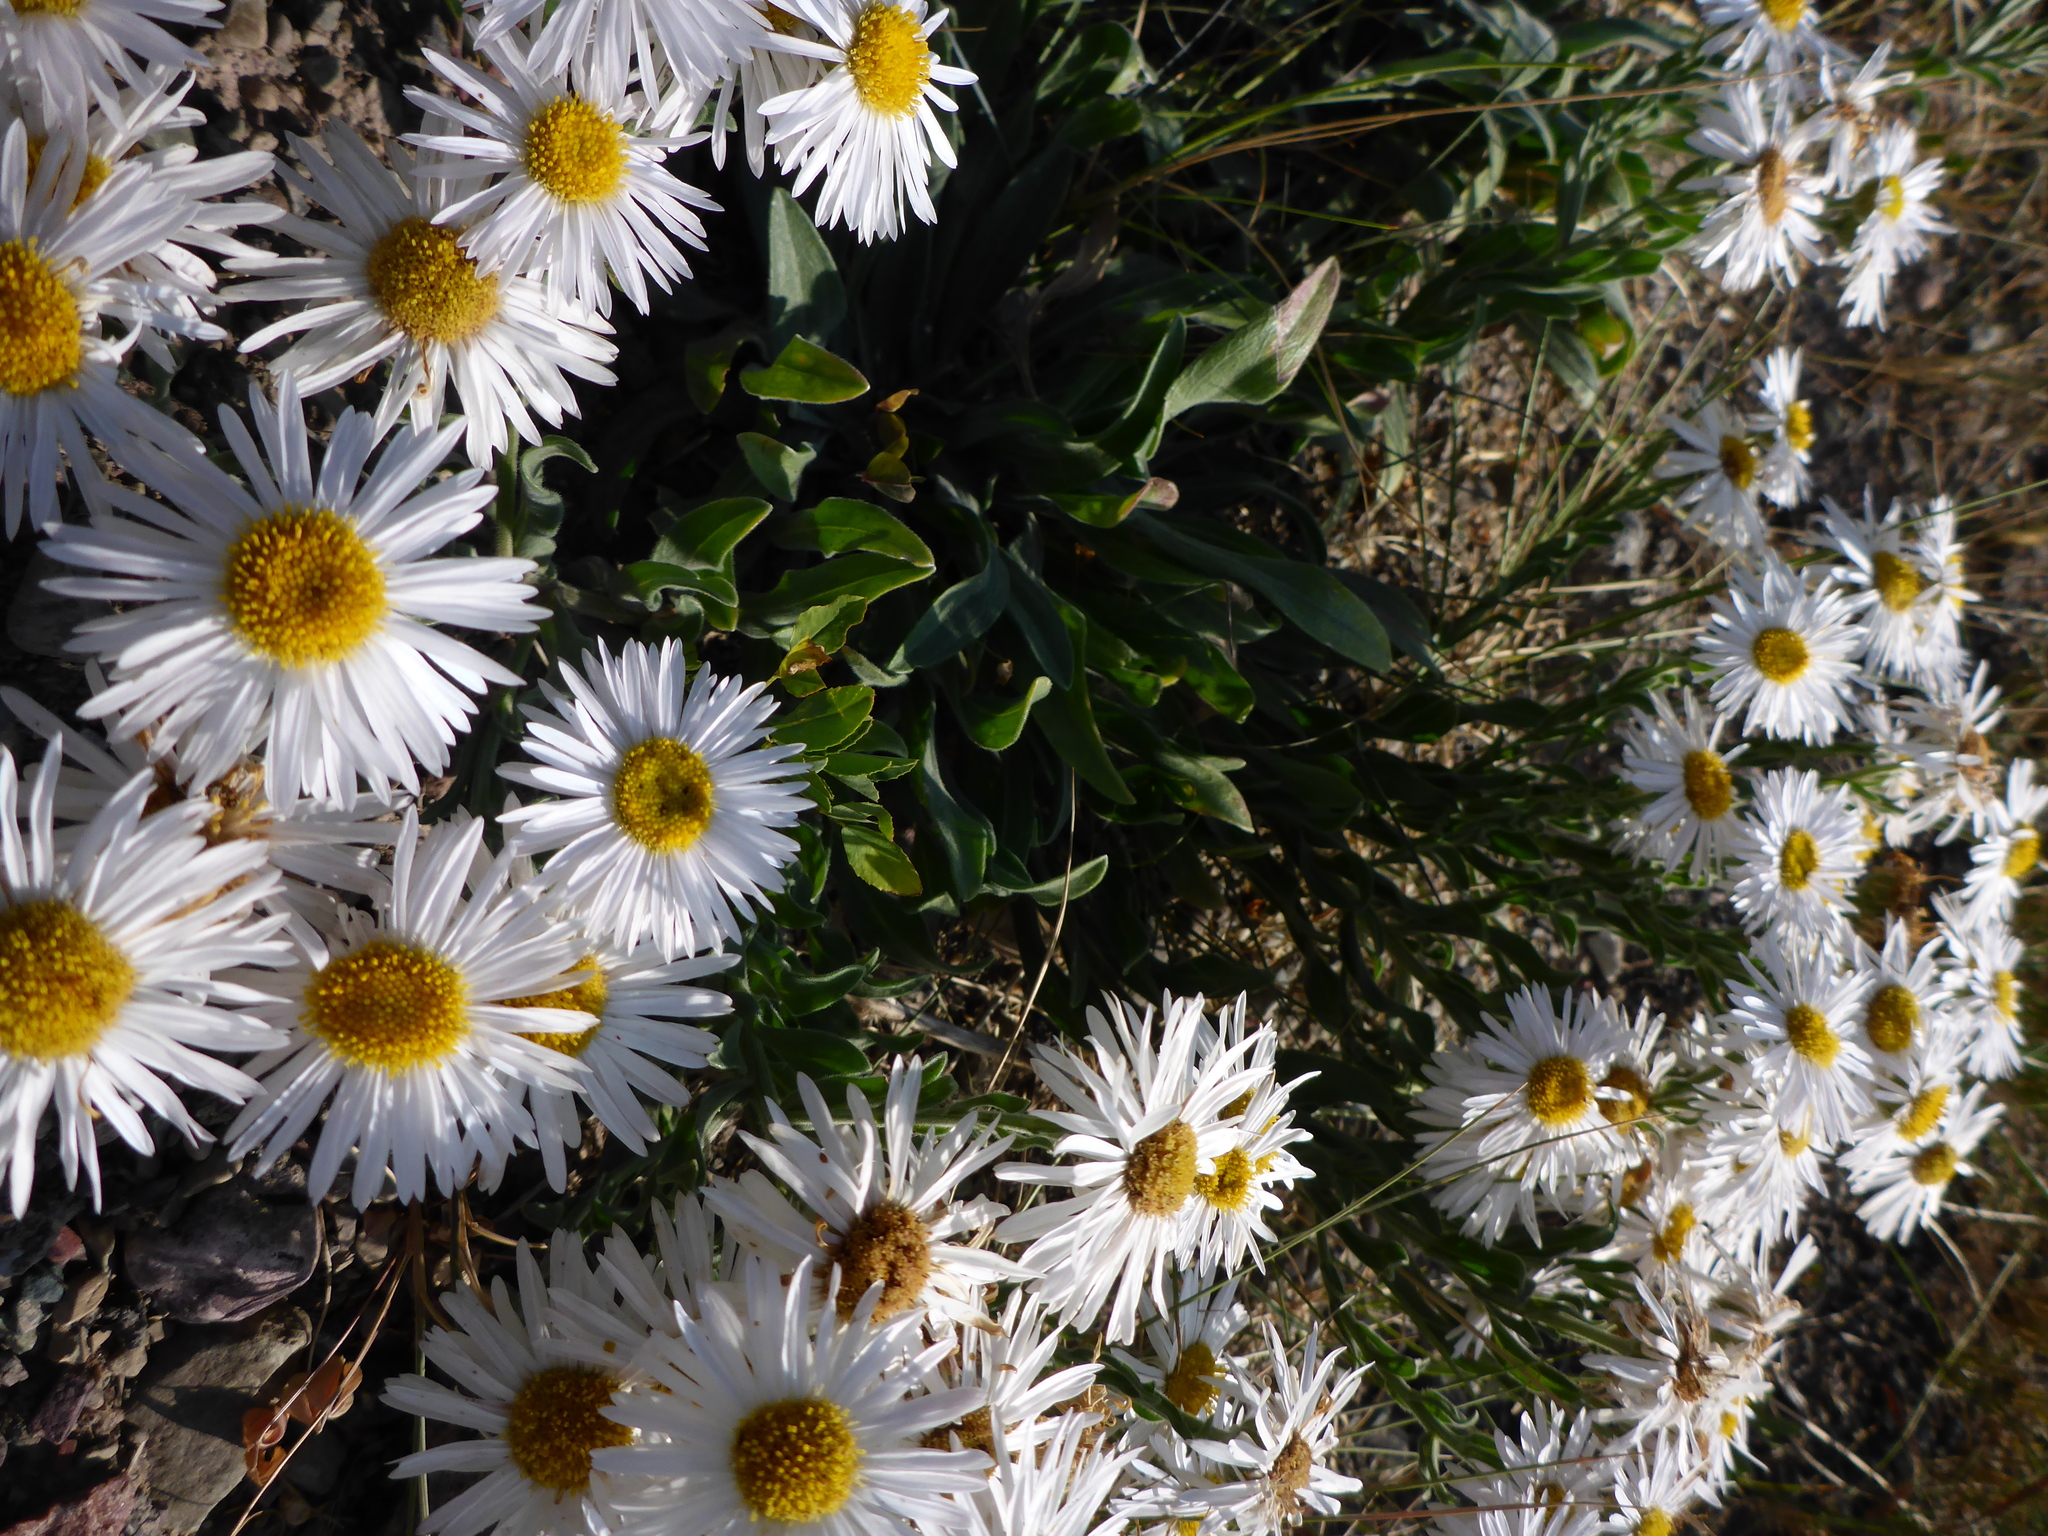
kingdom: Plantae
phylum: Tracheophyta
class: Magnoliopsida
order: Asterales
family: Asteraceae
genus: Erigeron
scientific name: Erigeron caespitosus
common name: Tufted fleabane
